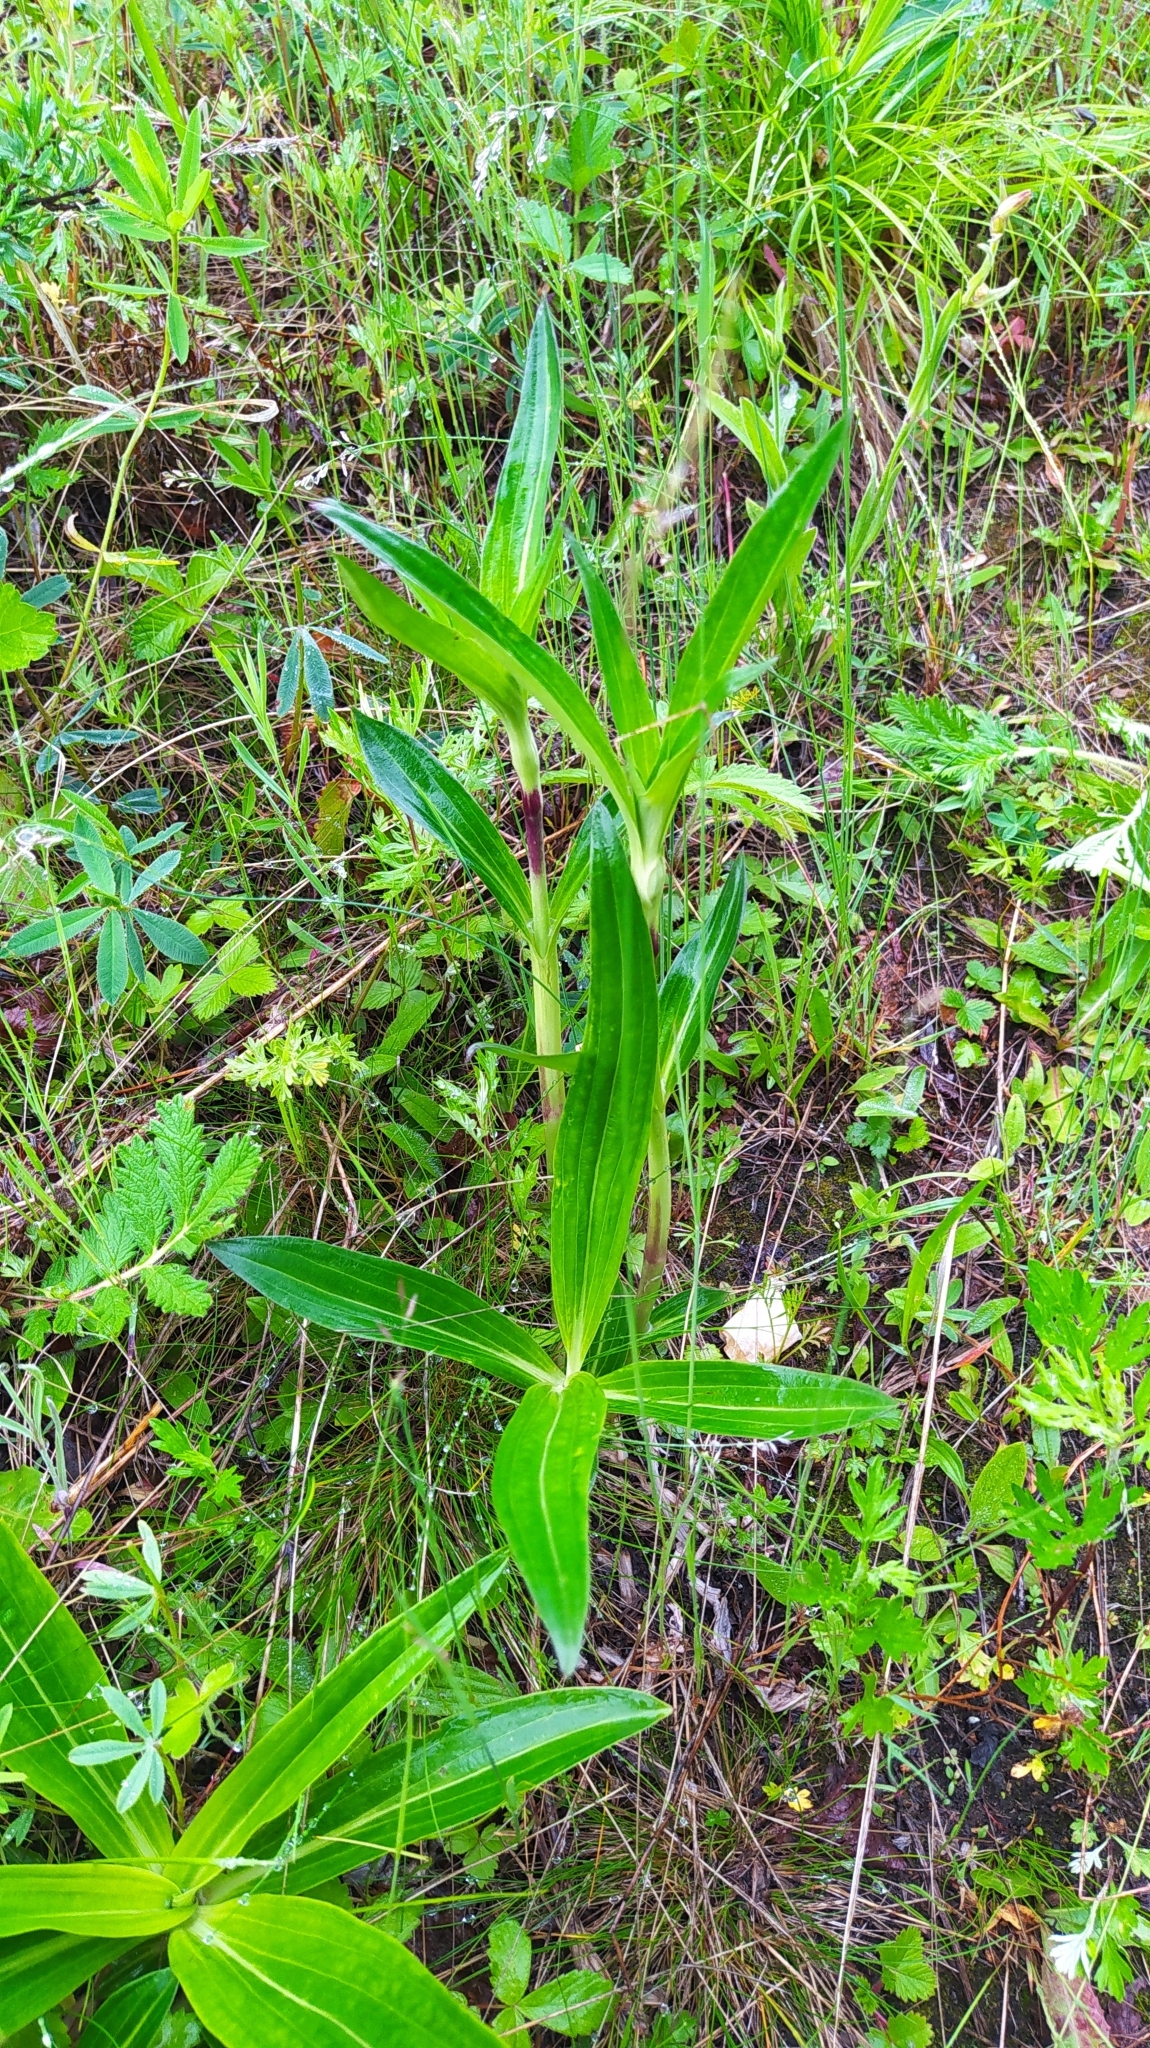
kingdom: Plantae
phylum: Tracheophyta
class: Magnoliopsida
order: Gentianales
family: Gentianaceae
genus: Gentiana
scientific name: Gentiana macrophylla
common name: Large-leaf gentian
